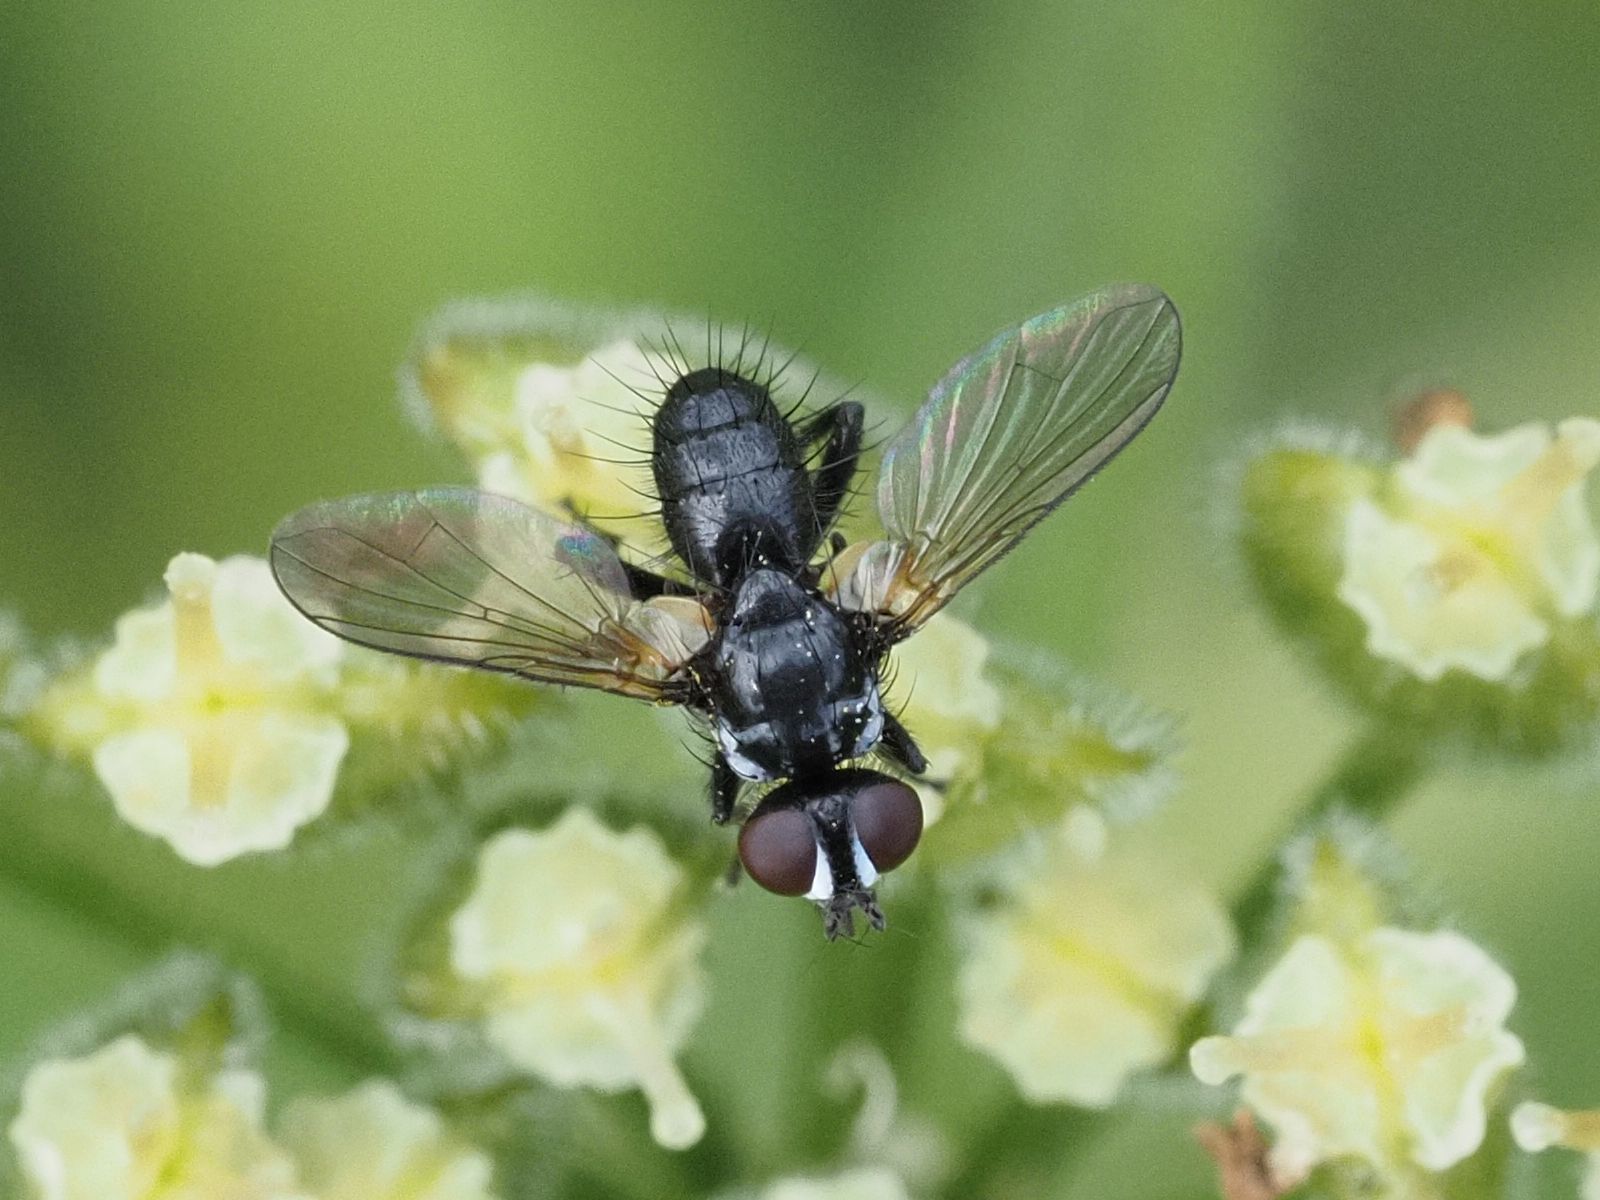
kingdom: Animalia
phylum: Arthropoda
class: Insecta
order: Diptera
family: Tachinidae
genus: Phania
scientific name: Phania funesta
